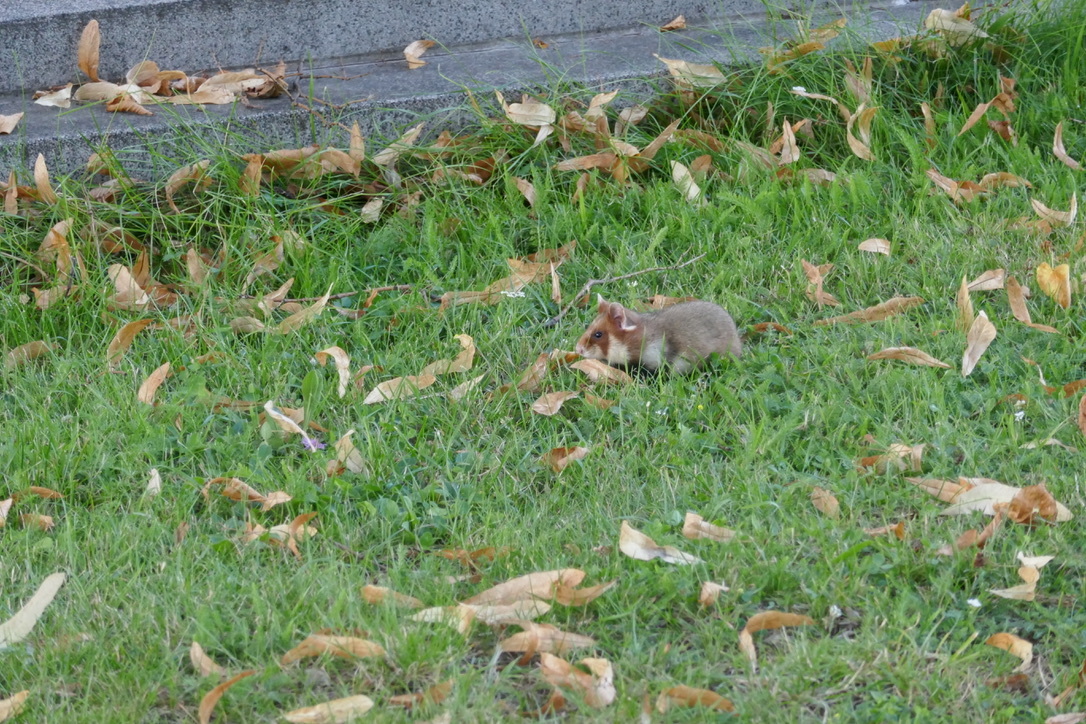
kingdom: Animalia
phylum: Chordata
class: Mammalia
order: Rodentia
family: Cricetidae
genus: Cricetus
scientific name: Cricetus cricetus
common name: Common hamster
